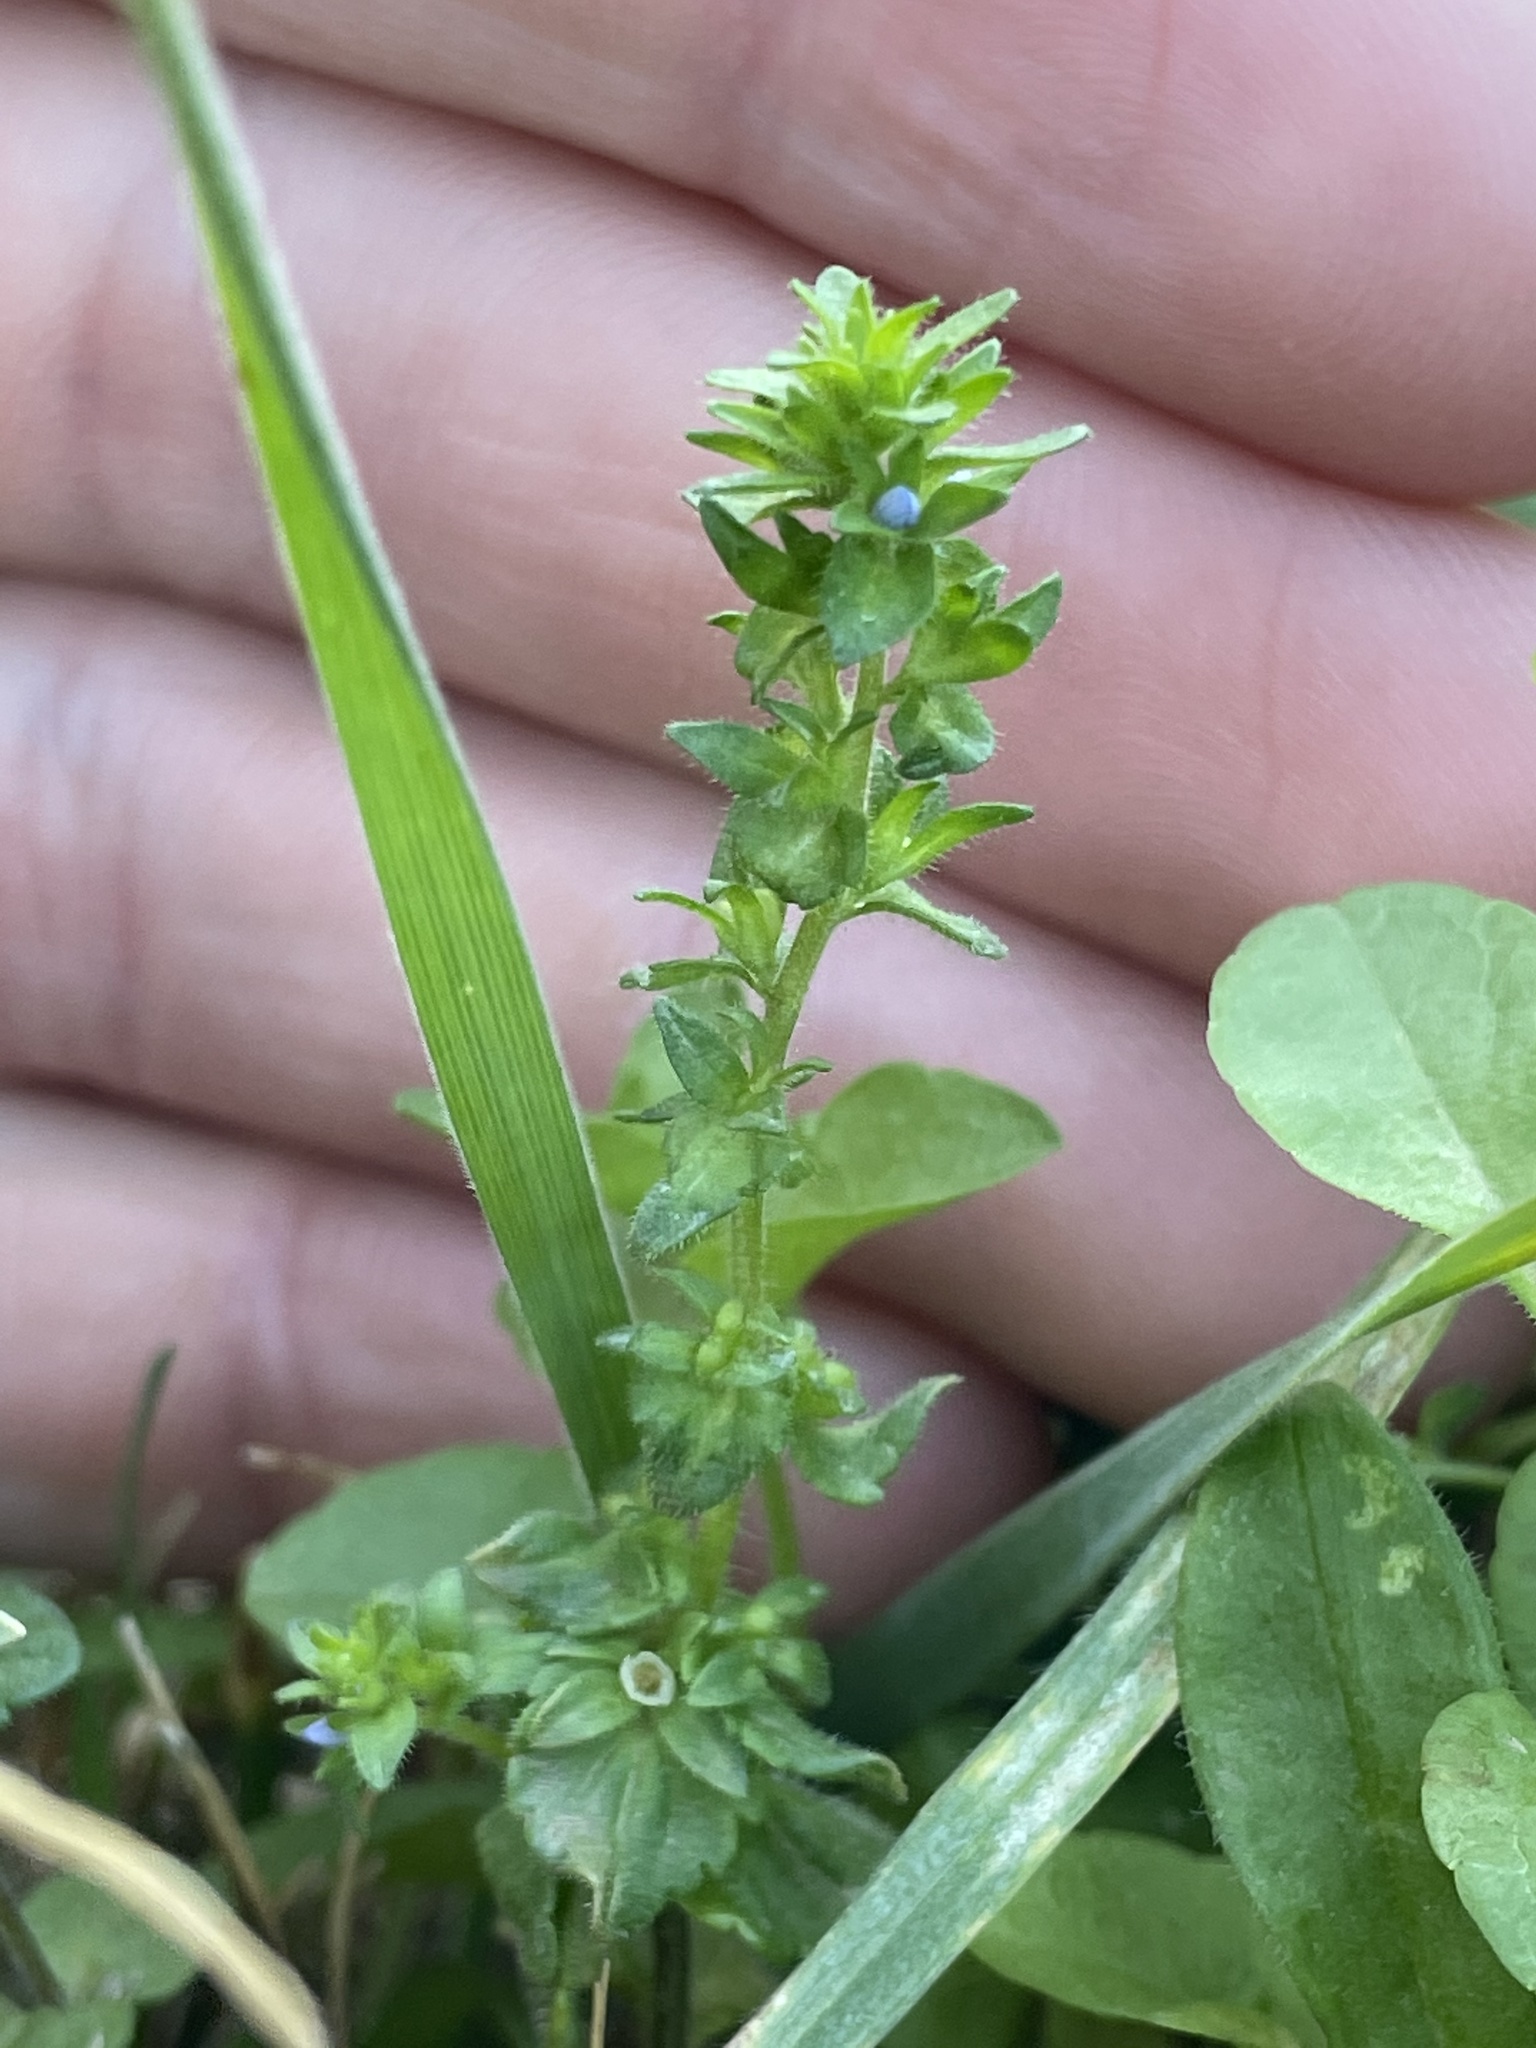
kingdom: Plantae
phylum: Tracheophyta
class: Magnoliopsida
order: Lamiales
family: Plantaginaceae
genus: Veronica
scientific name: Veronica arvensis
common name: Corn speedwell
